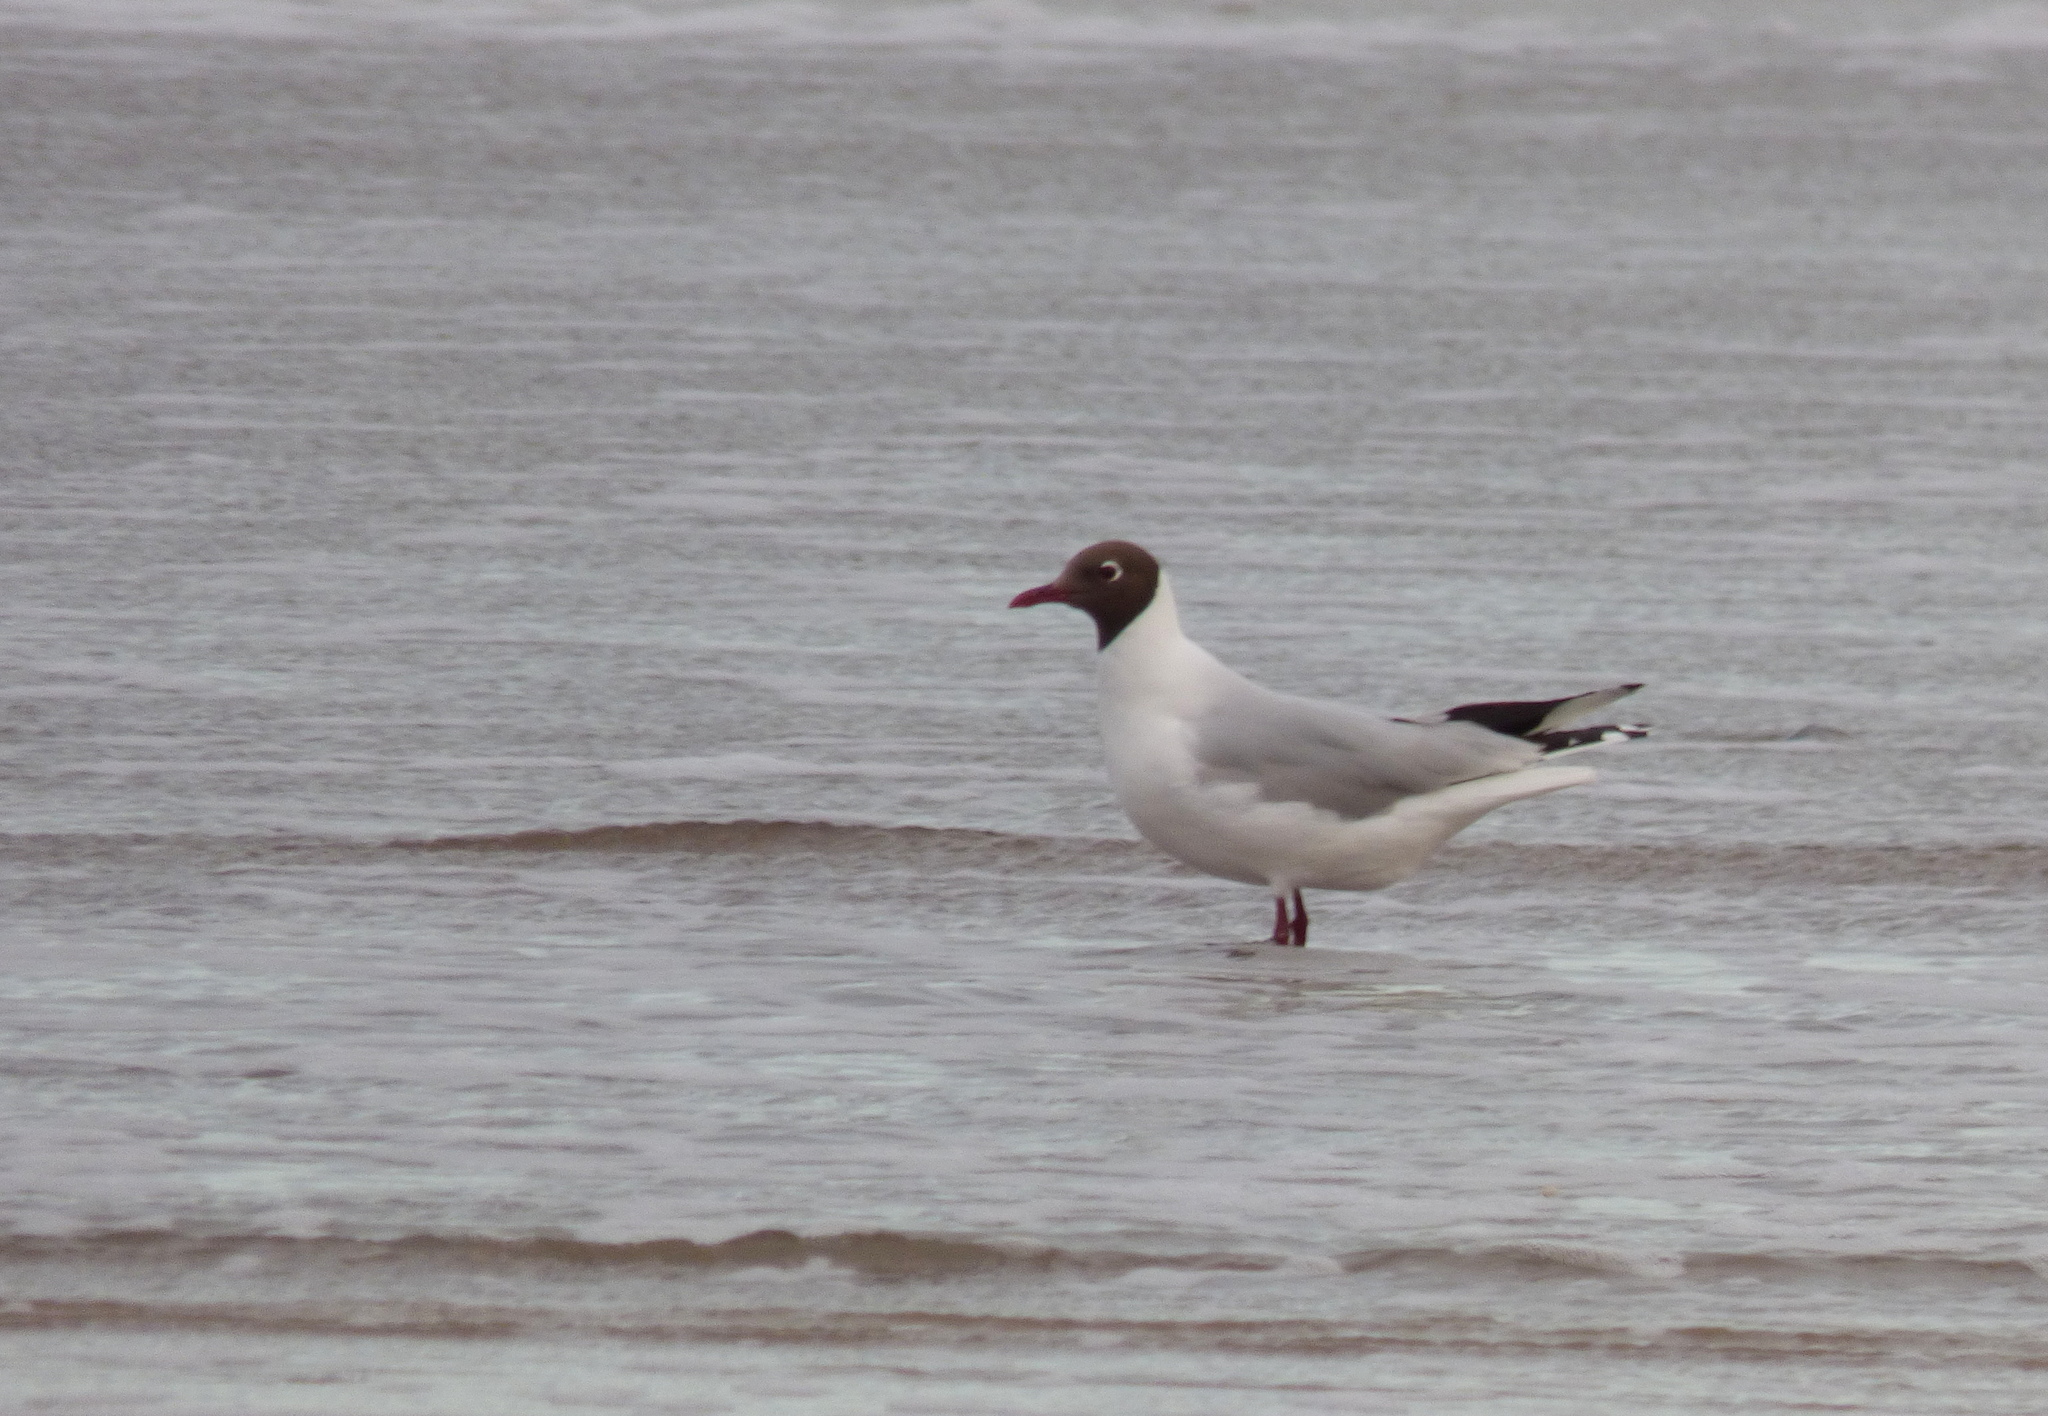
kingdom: Animalia
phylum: Chordata
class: Aves
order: Charadriiformes
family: Laridae
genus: Chroicocephalus
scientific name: Chroicocephalus maculipennis
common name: Brown-hooded gull
